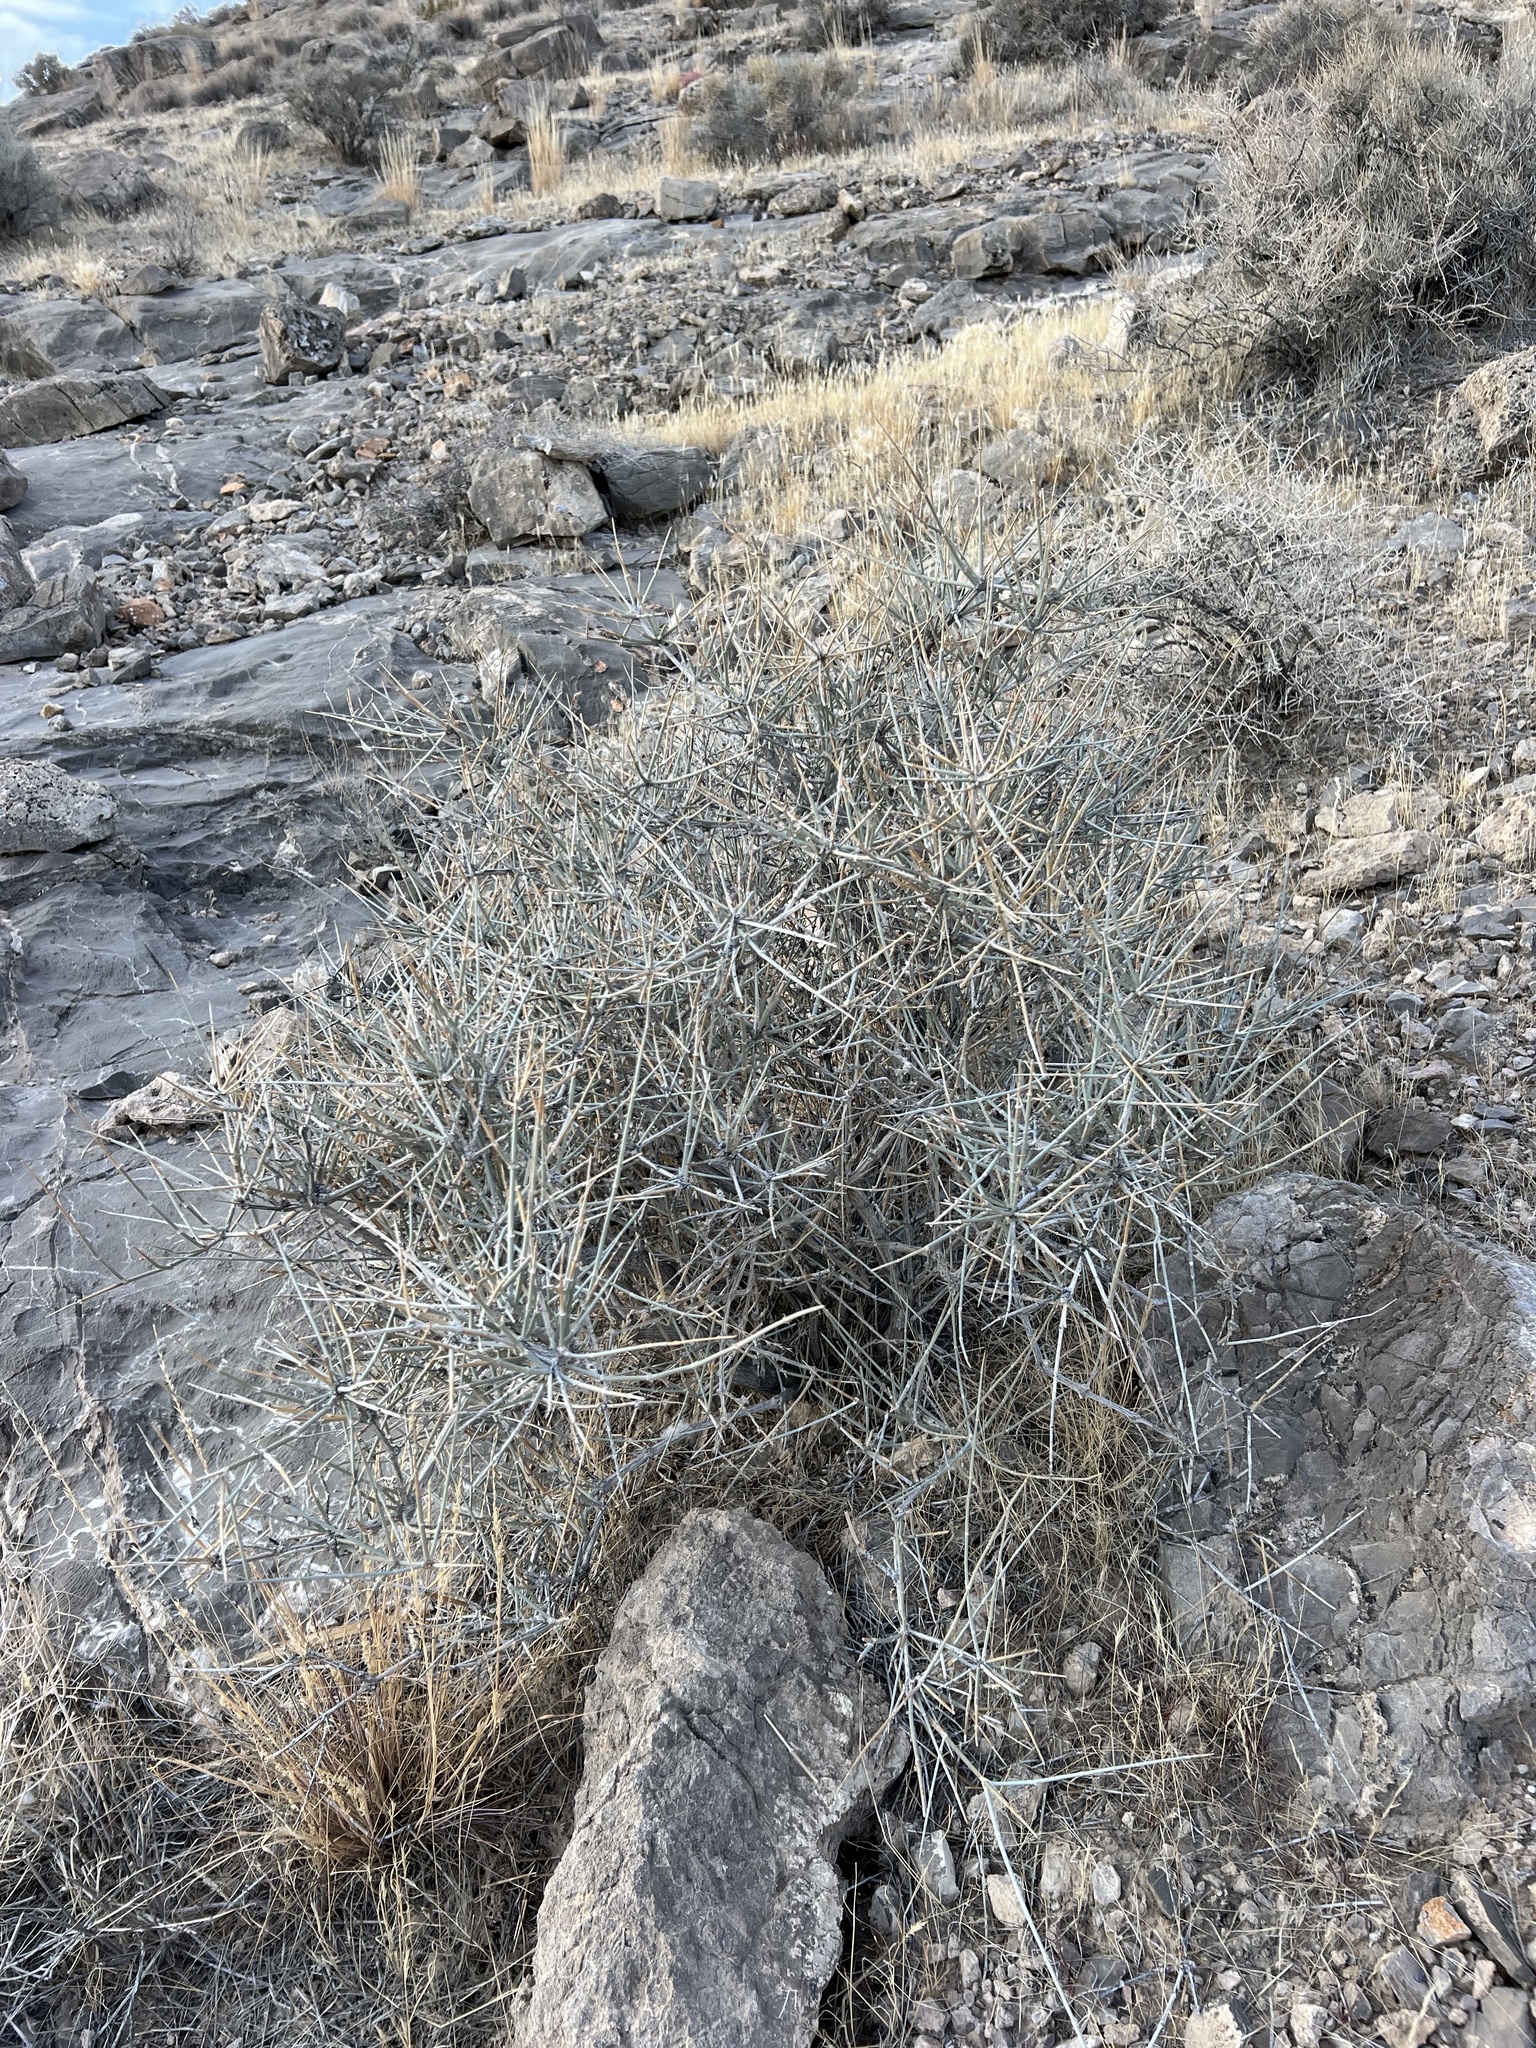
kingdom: Plantae
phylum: Tracheophyta
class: Gnetopsida
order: Ephedrales
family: Ephedraceae
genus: Ephedra
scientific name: Ephedra nevadensis
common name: Gray ephedra
